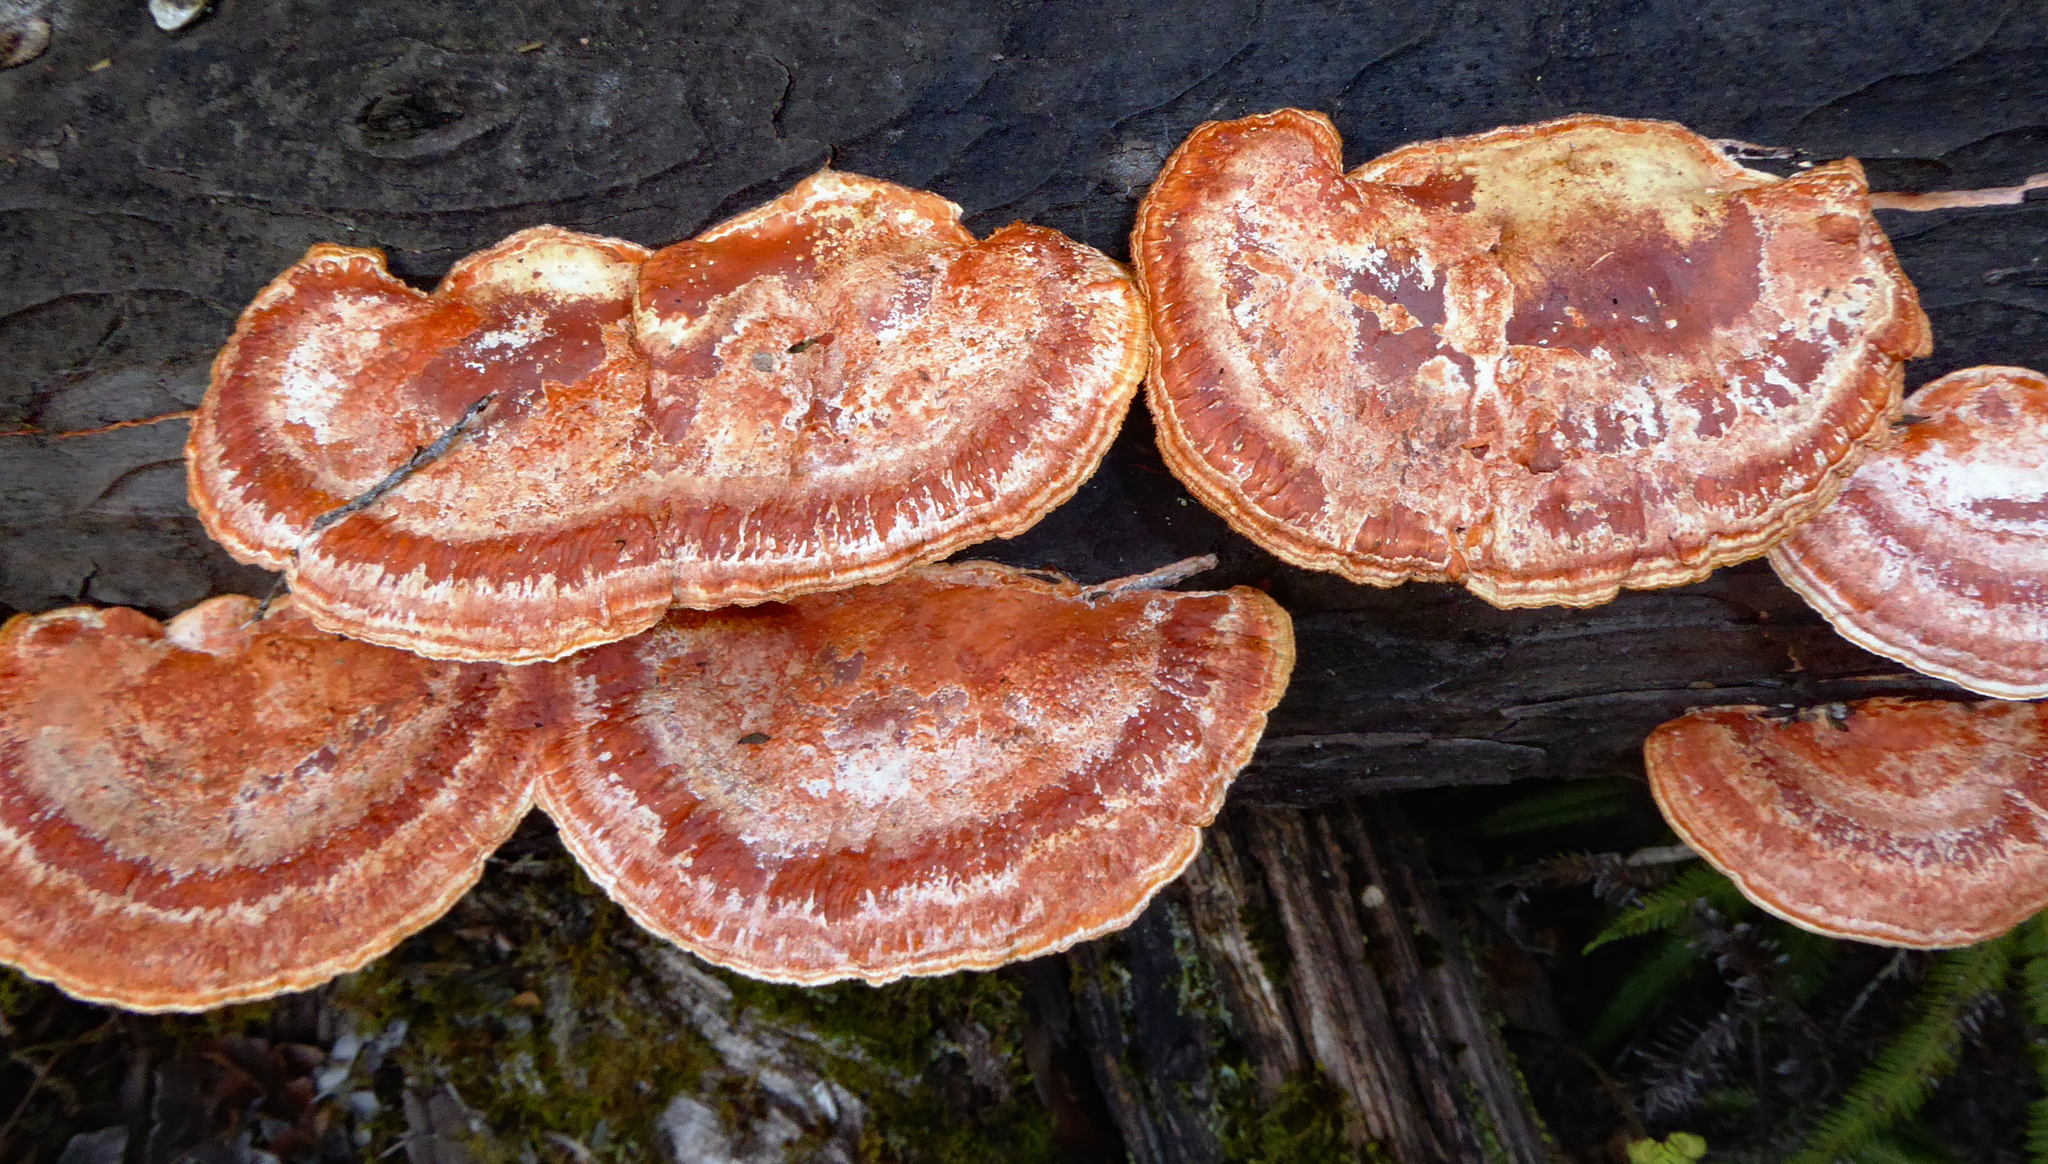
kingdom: Fungi
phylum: Basidiomycota
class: Agaricomycetes
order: Polyporales
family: Polyporaceae
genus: Trametes
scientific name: Trametes coccinea
